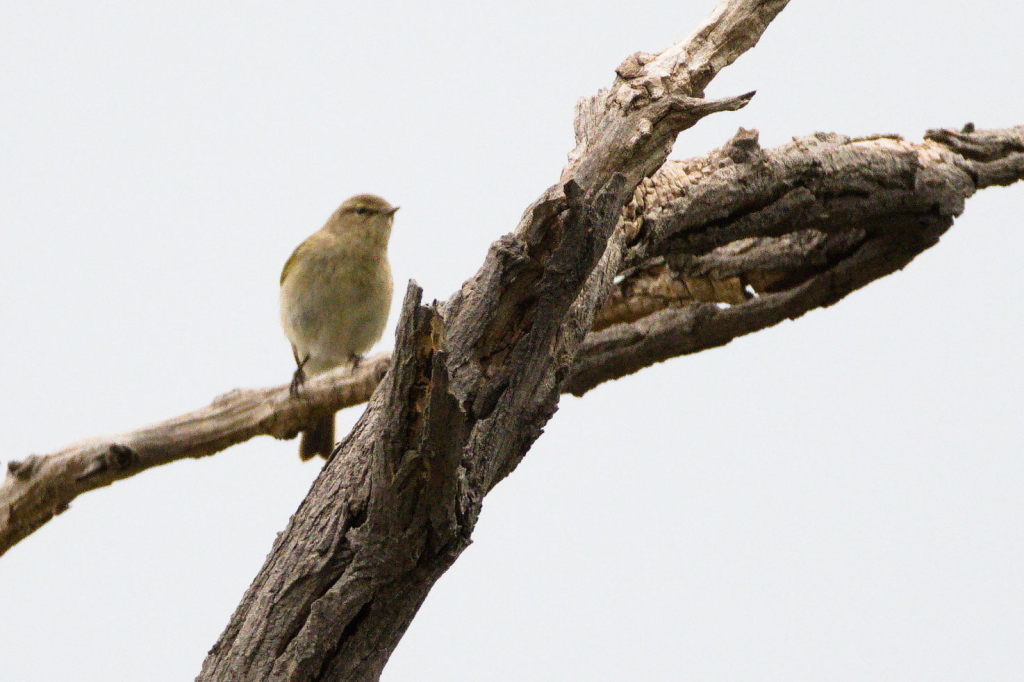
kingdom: Animalia
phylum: Chordata
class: Aves
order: Passeriformes
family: Phylloscopidae
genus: Phylloscopus
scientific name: Phylloscopus collybita
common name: Common chiffchaff
